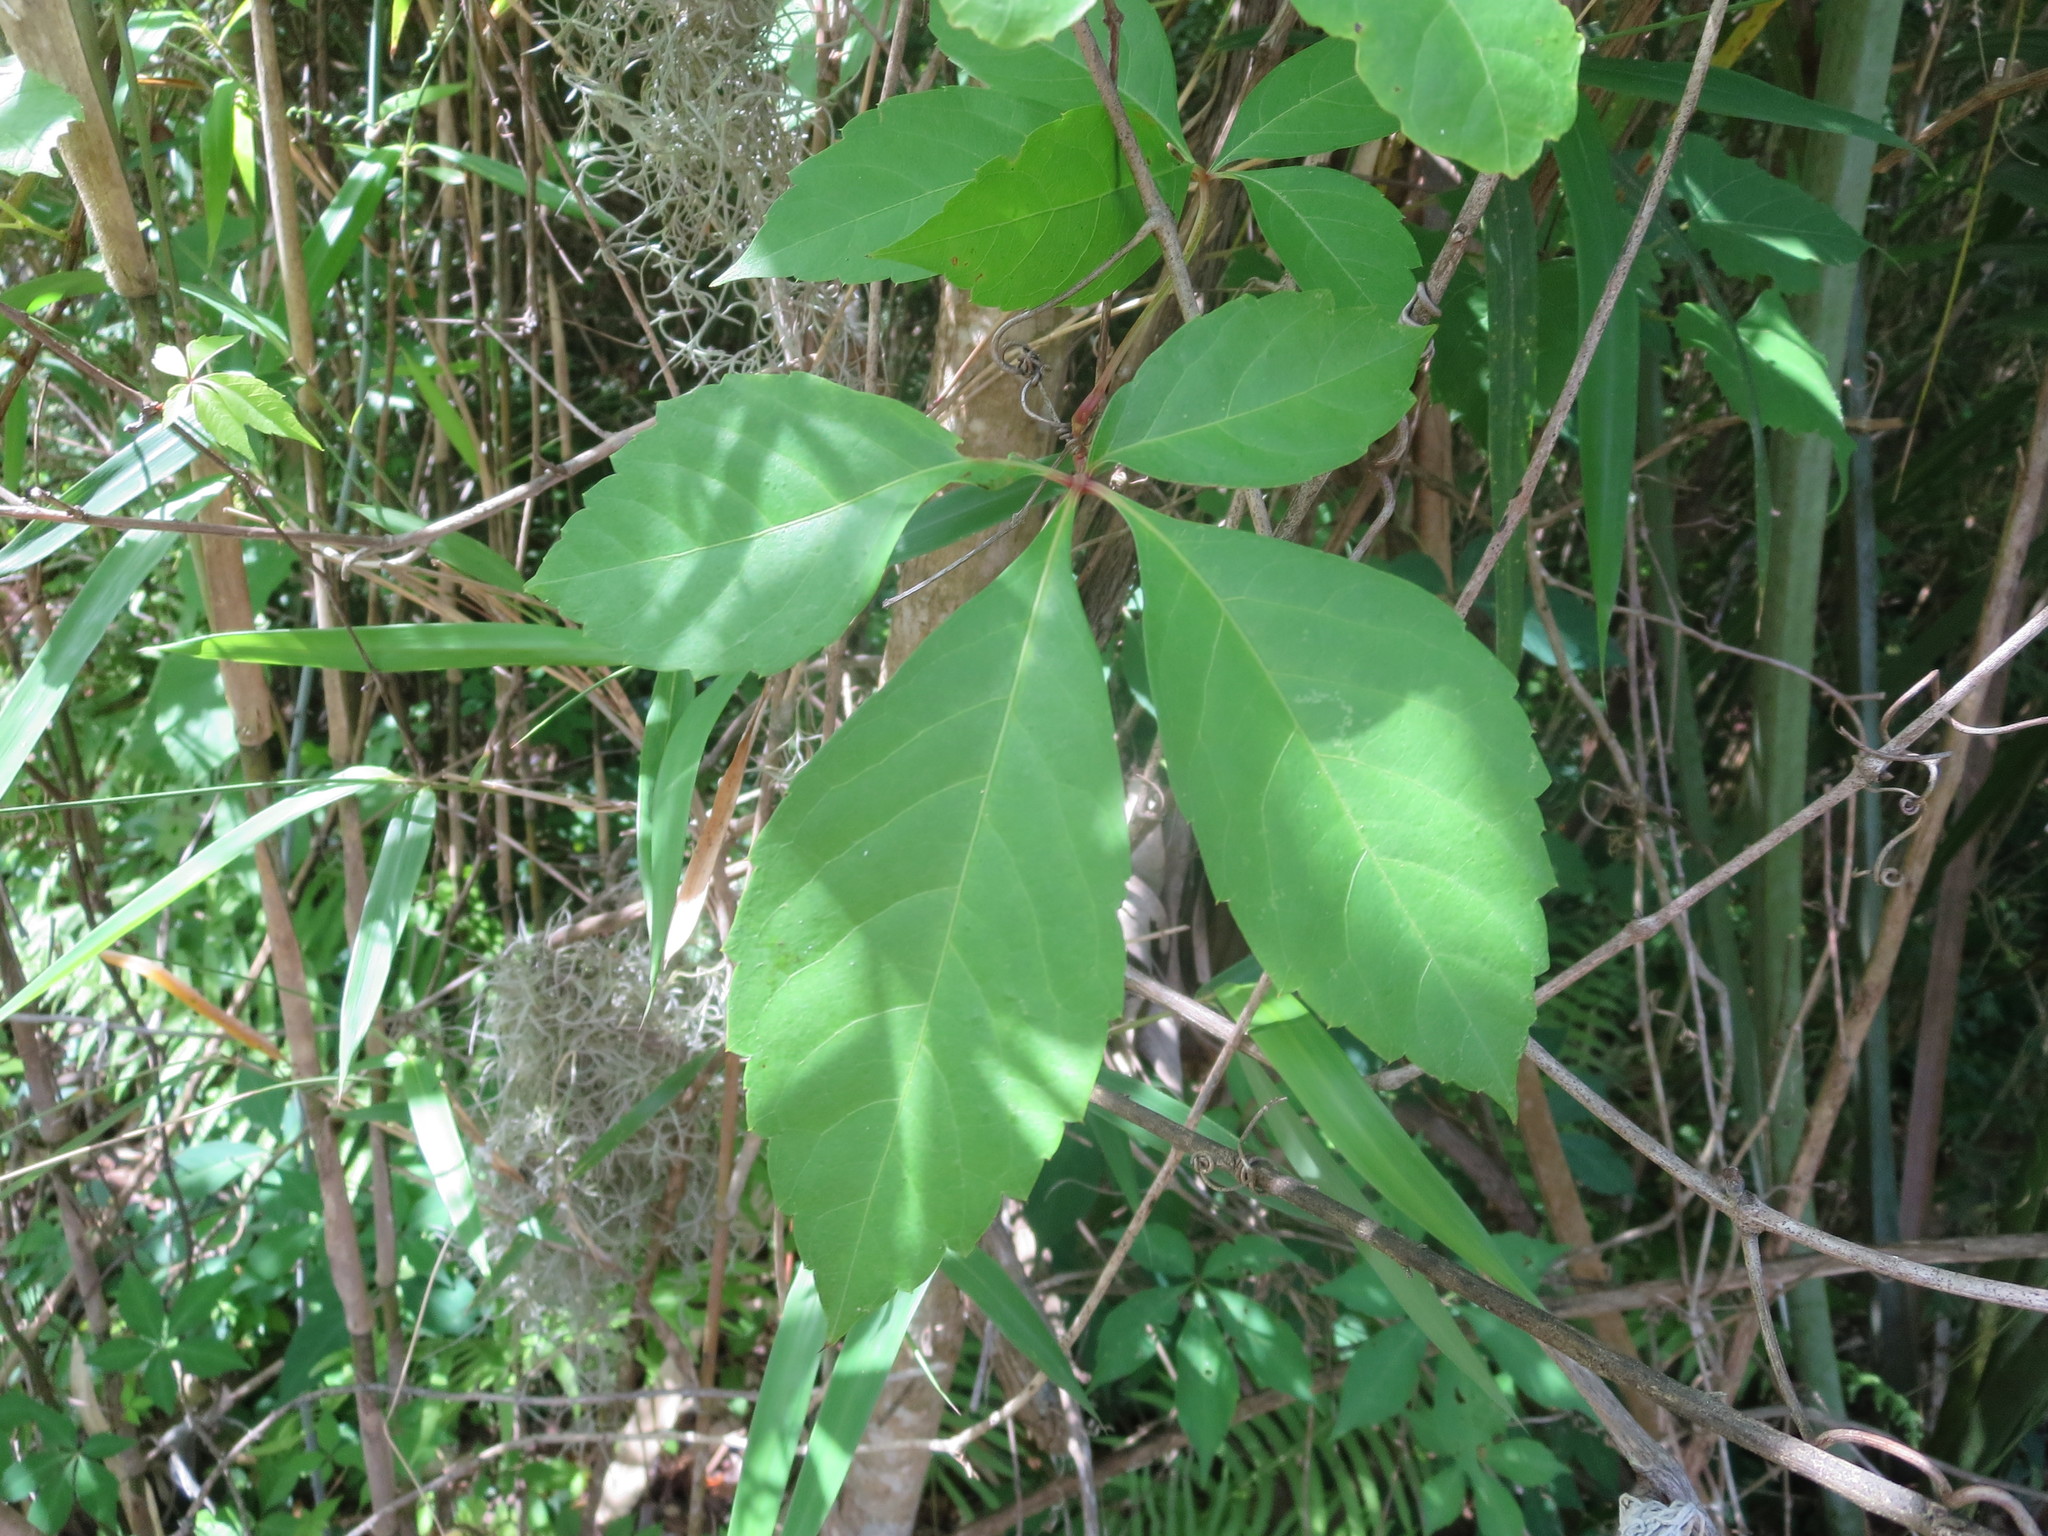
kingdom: Plantae
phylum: Tracheophyta
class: Magnoliopsida
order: Vitales
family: Vitaceae
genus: Parthenocissus
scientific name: Parthenocissus quinquefolia
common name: Virginia-creeper
